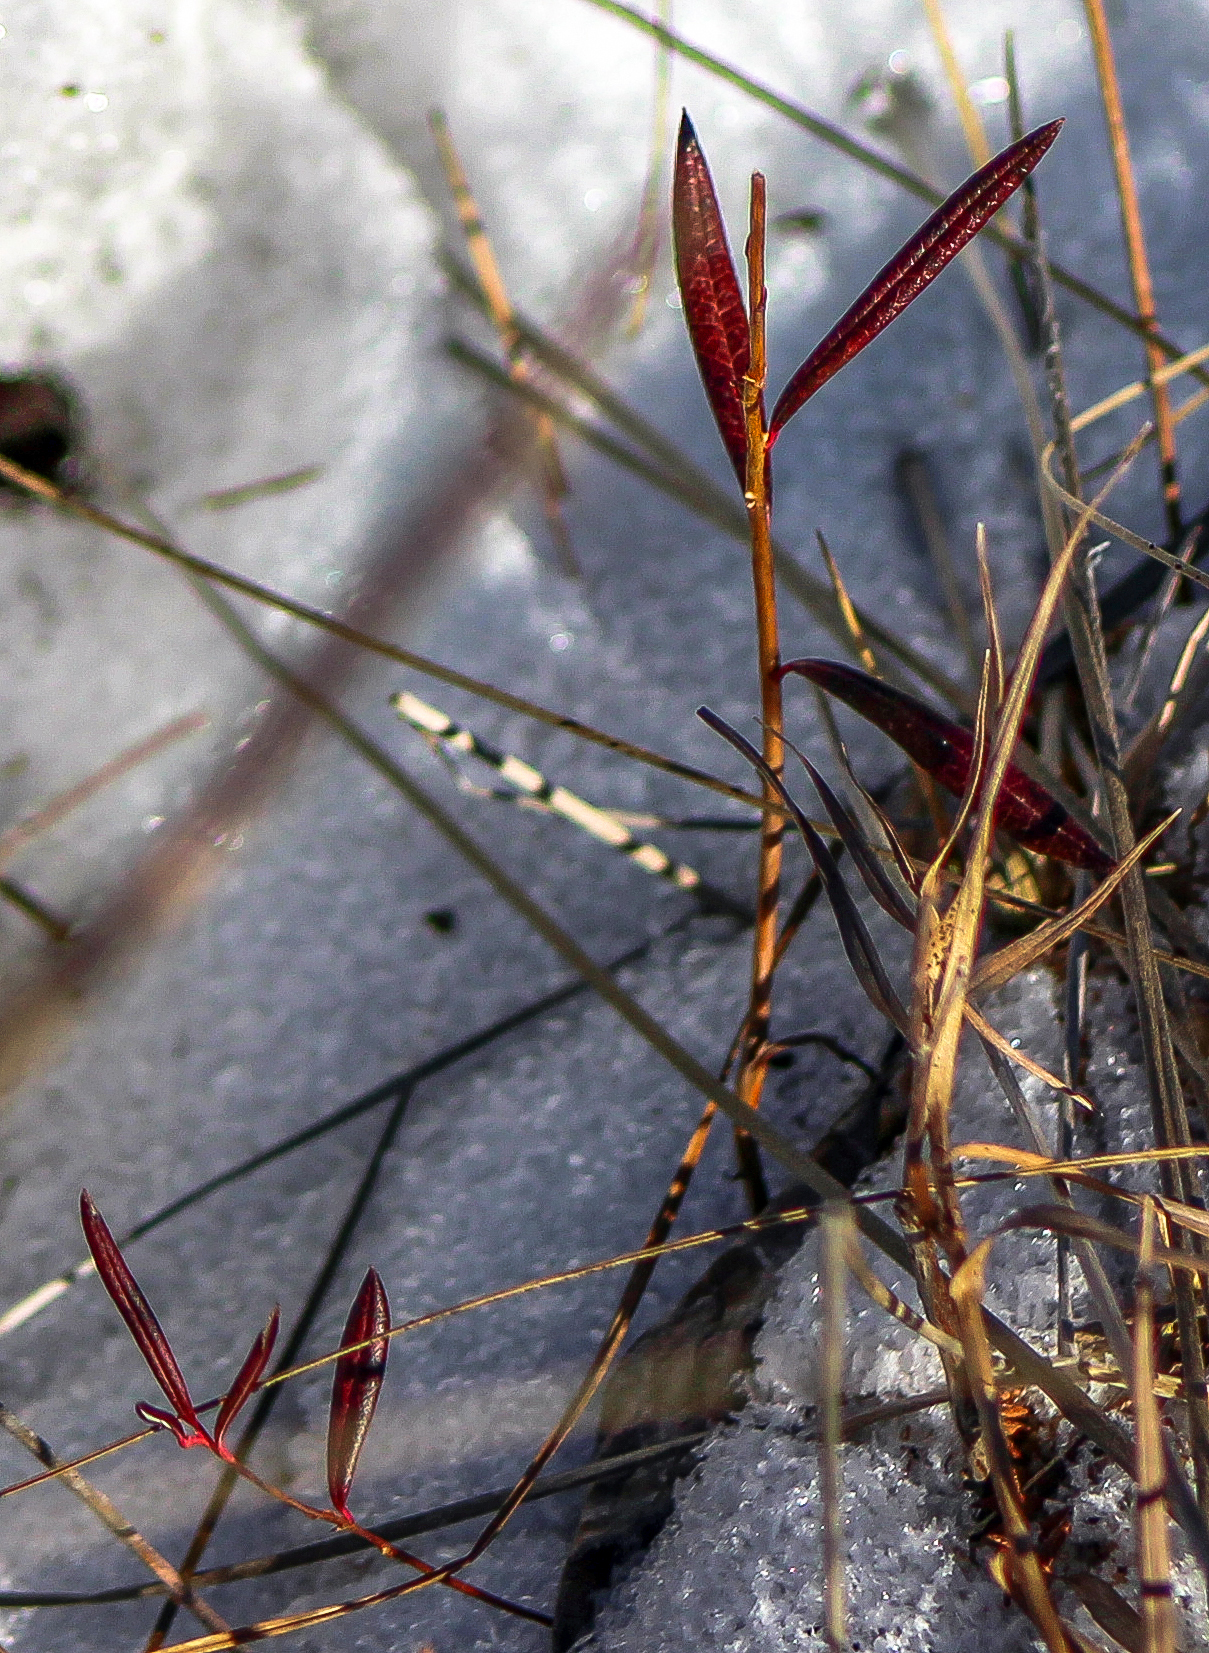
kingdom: Plantae
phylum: Tracheophyta
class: Magnoliopsida
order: Ericales
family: Ericaceae
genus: Andromeda
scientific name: Andromeda polifolia
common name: Bog-rosemary
